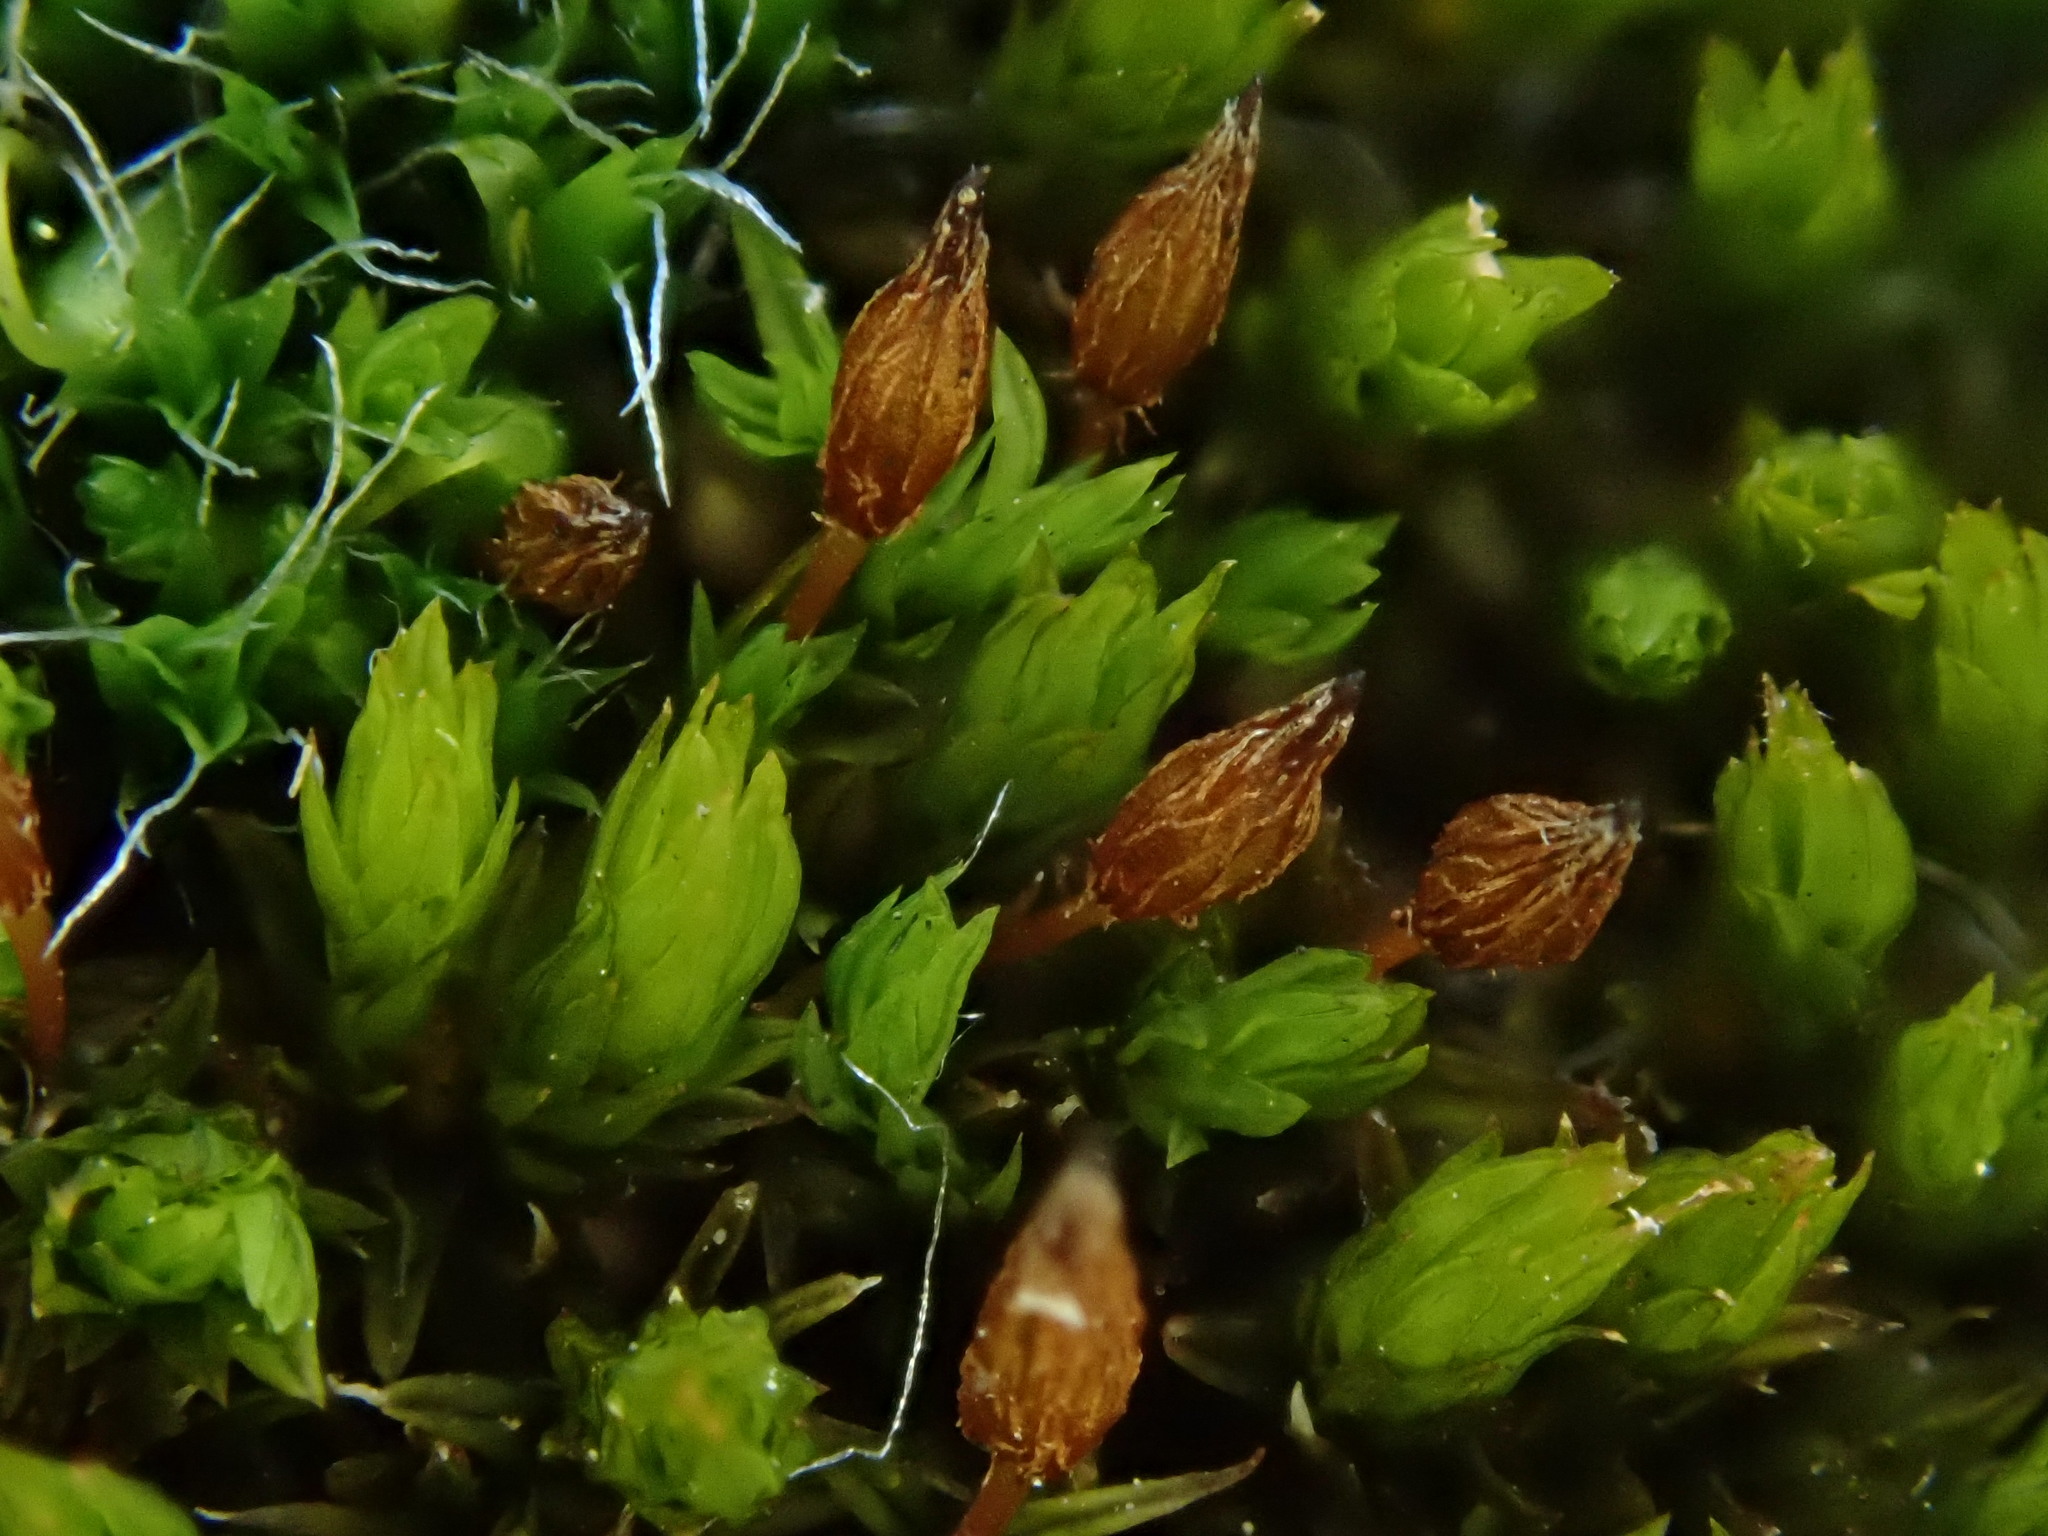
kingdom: Plantae
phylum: Bryophyta
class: Bryopsida
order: Orthotrichales
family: Orthotrichaceae
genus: Orthotrichum
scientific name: Orthotrichum anomalum
